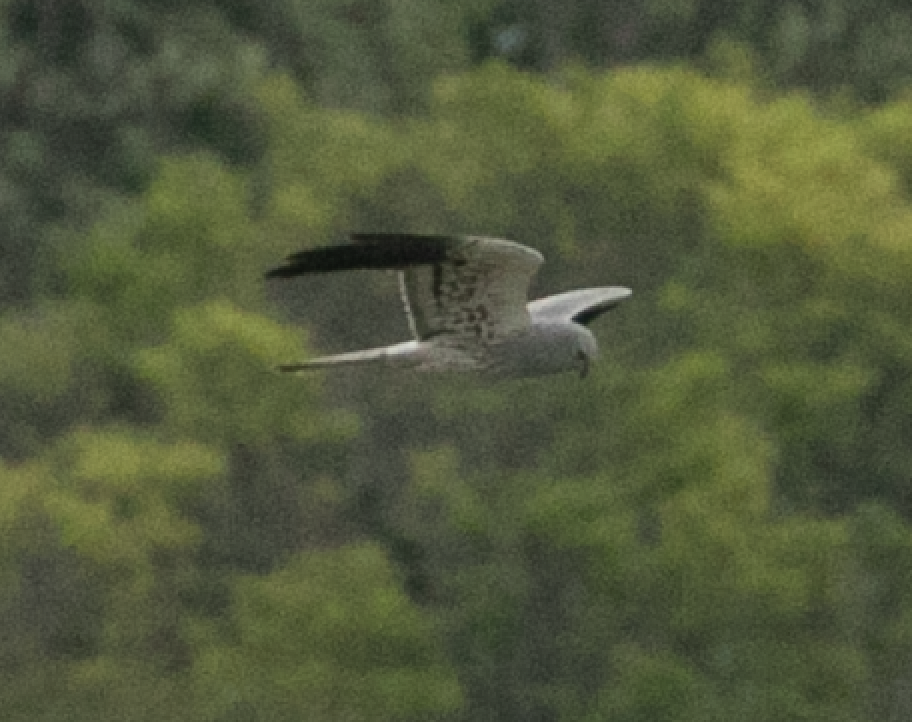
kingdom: Animalia
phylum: Chordata
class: Aves
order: Accipitriformes
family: Accipitridae
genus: Circus
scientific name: Circus pygargus
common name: Montagu's harrier
